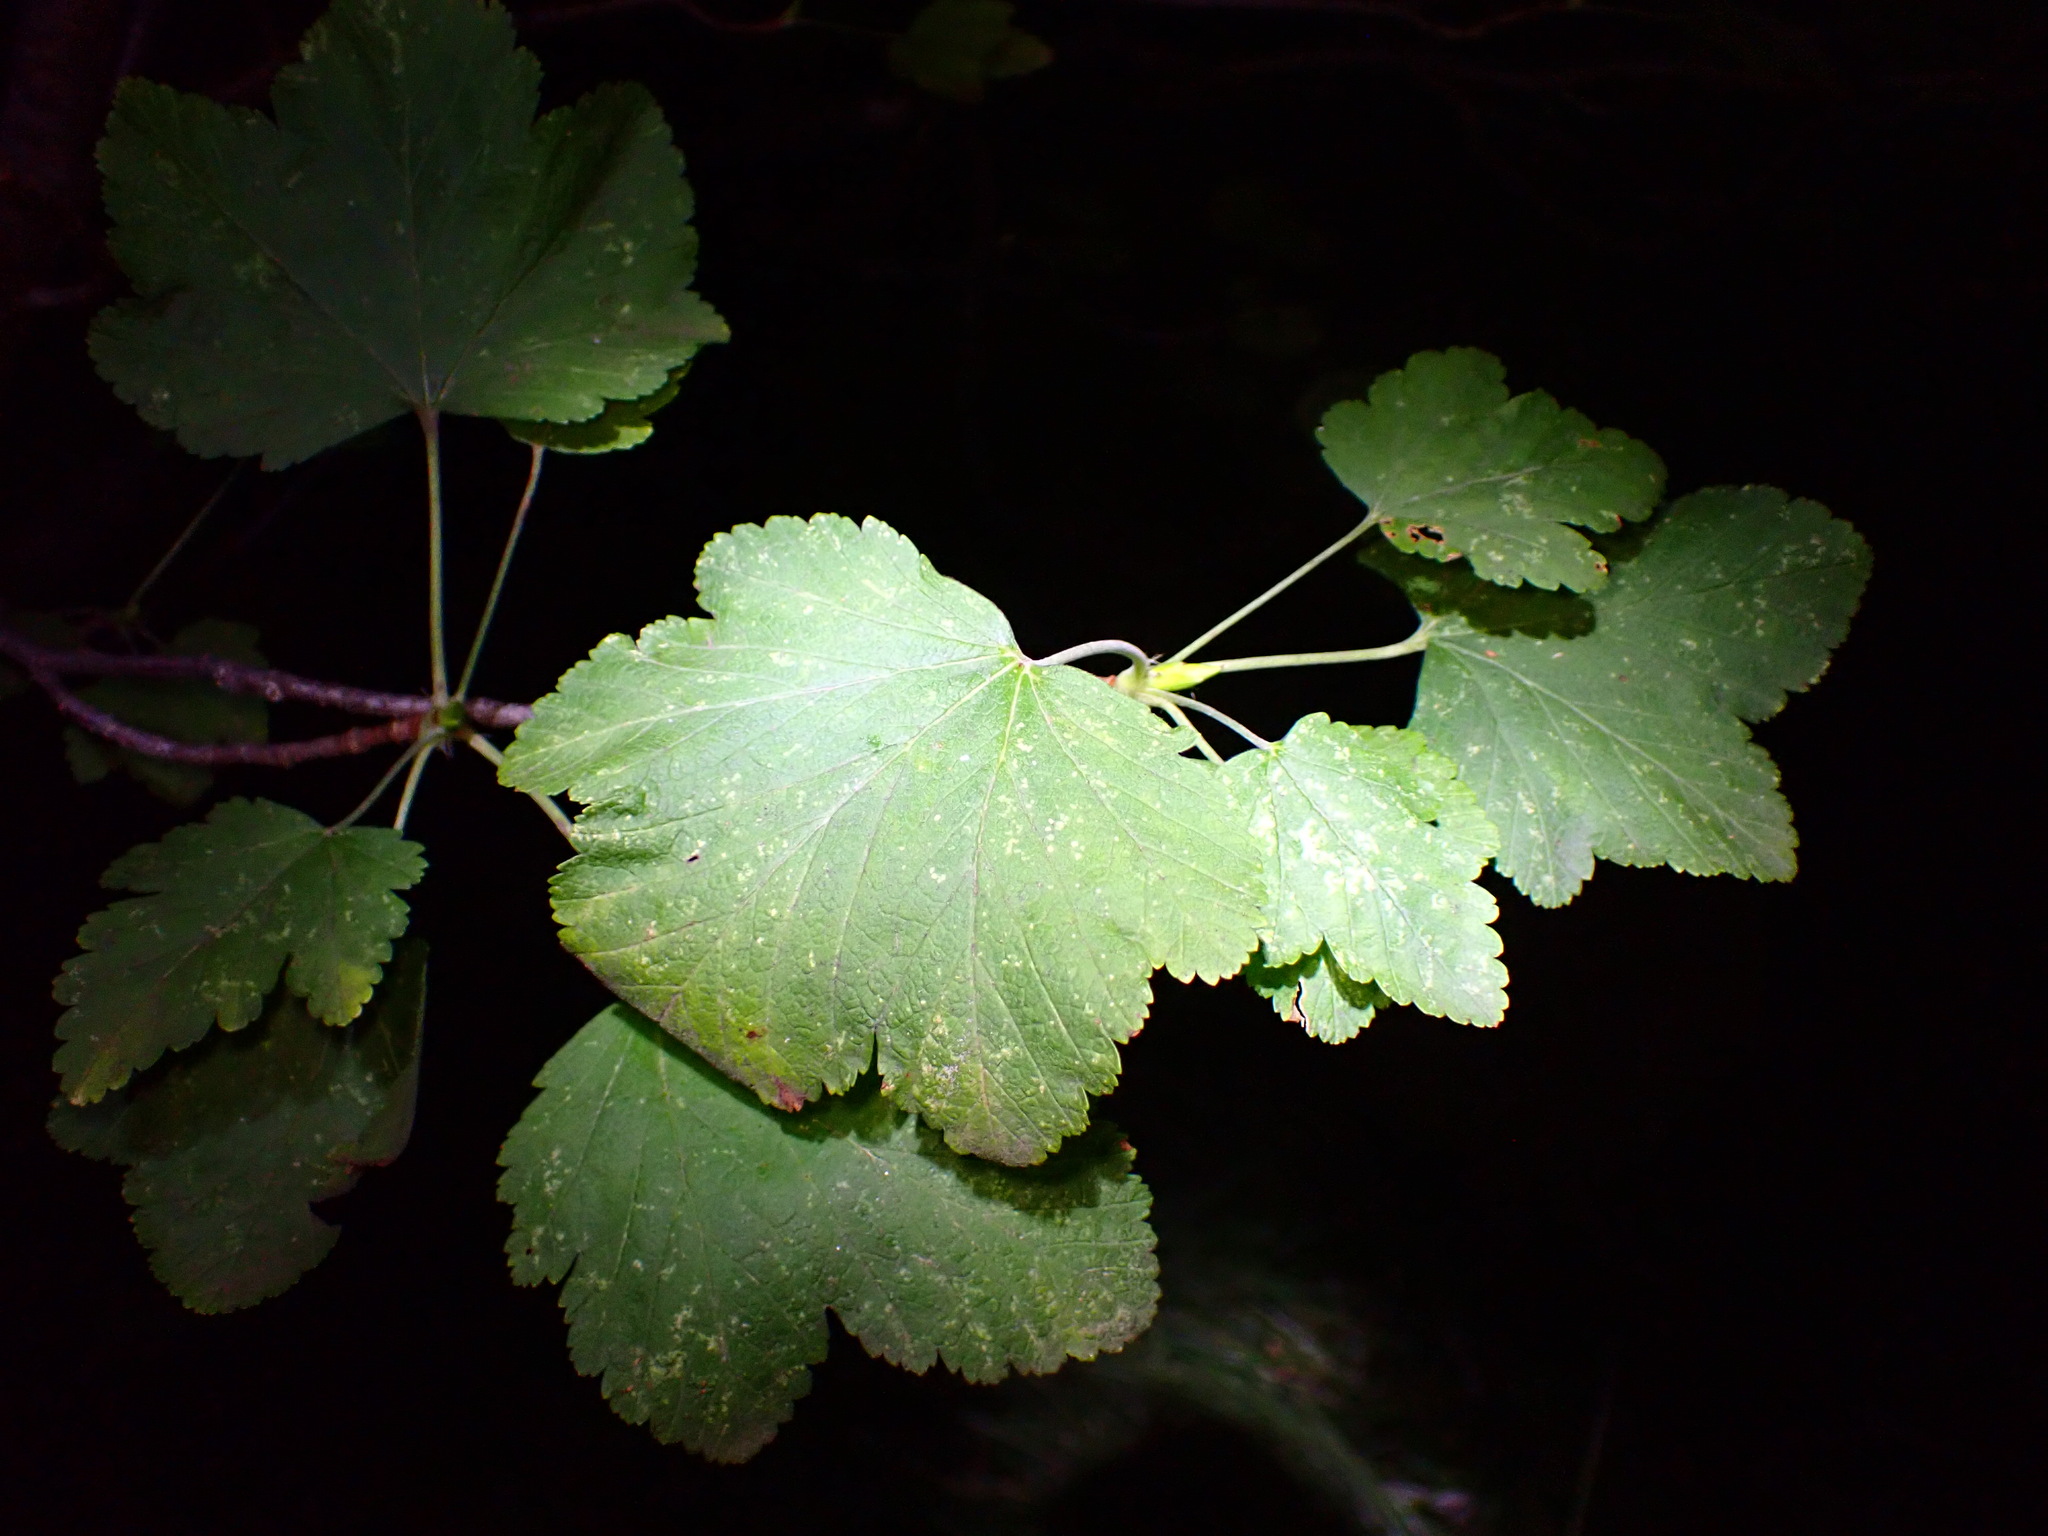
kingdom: Plantae
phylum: Tracheophyta
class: Magnoliopsida
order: Saxifragales
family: Grossulariaceae
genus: Ribes
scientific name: Ribes nevadense
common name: Mountain pink currant
